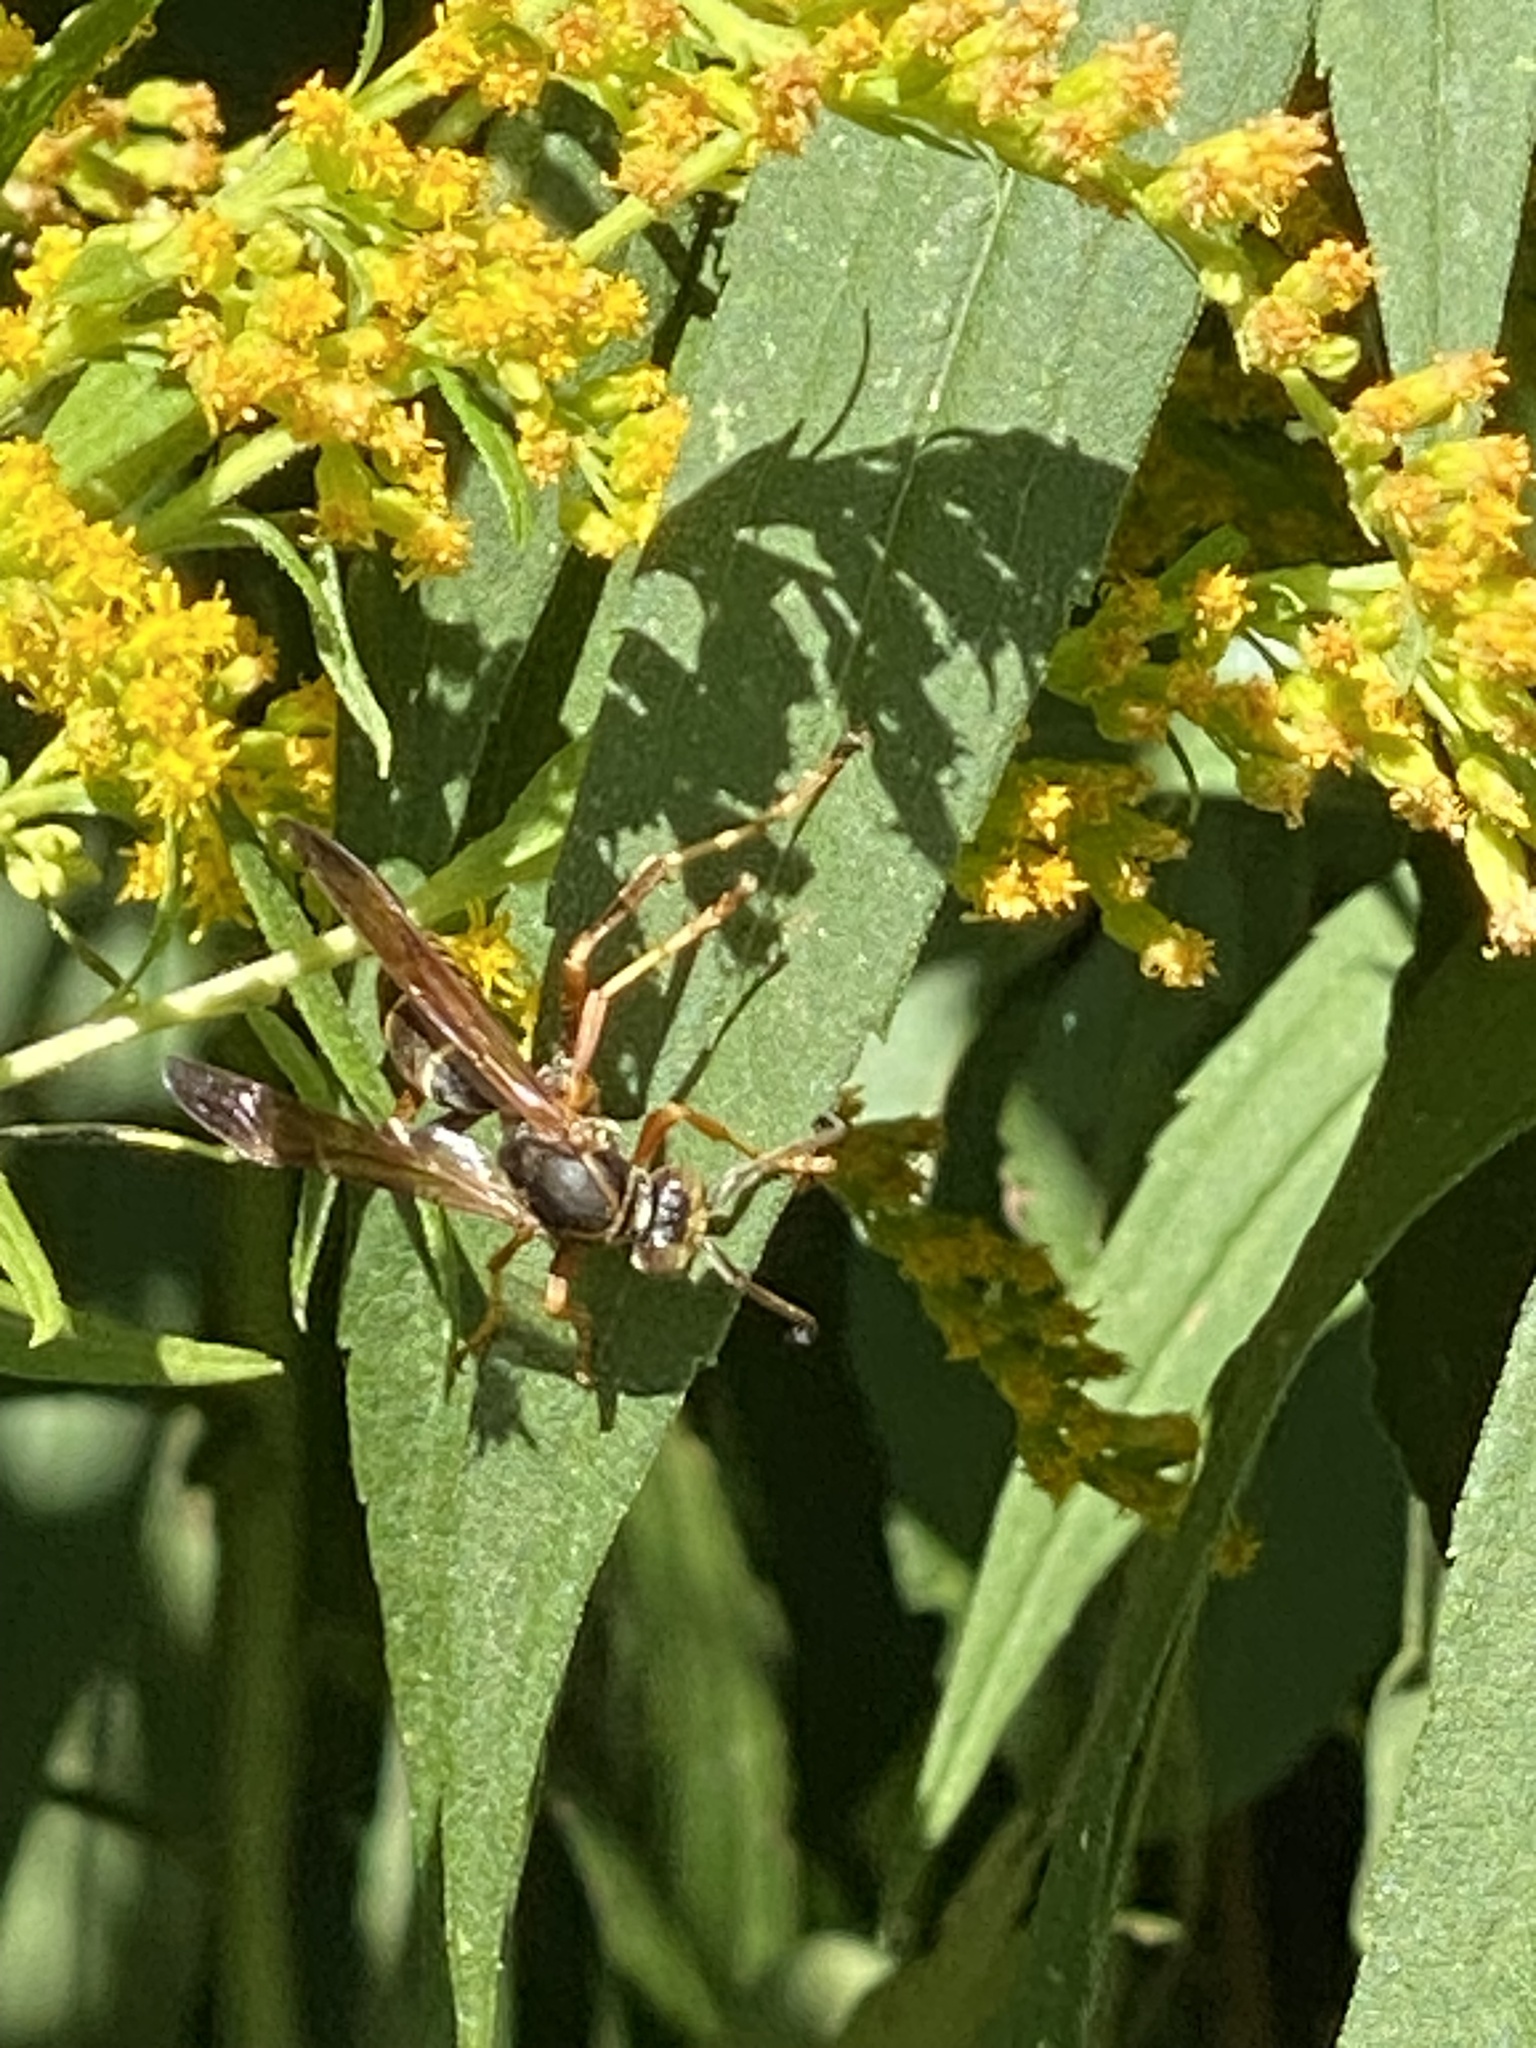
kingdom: Animalia
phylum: Arthropoda
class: Insecta
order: Hymenoptera
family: Eumenidae
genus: Polistes
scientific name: Polistes fuscatus
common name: Dark paper wasp
